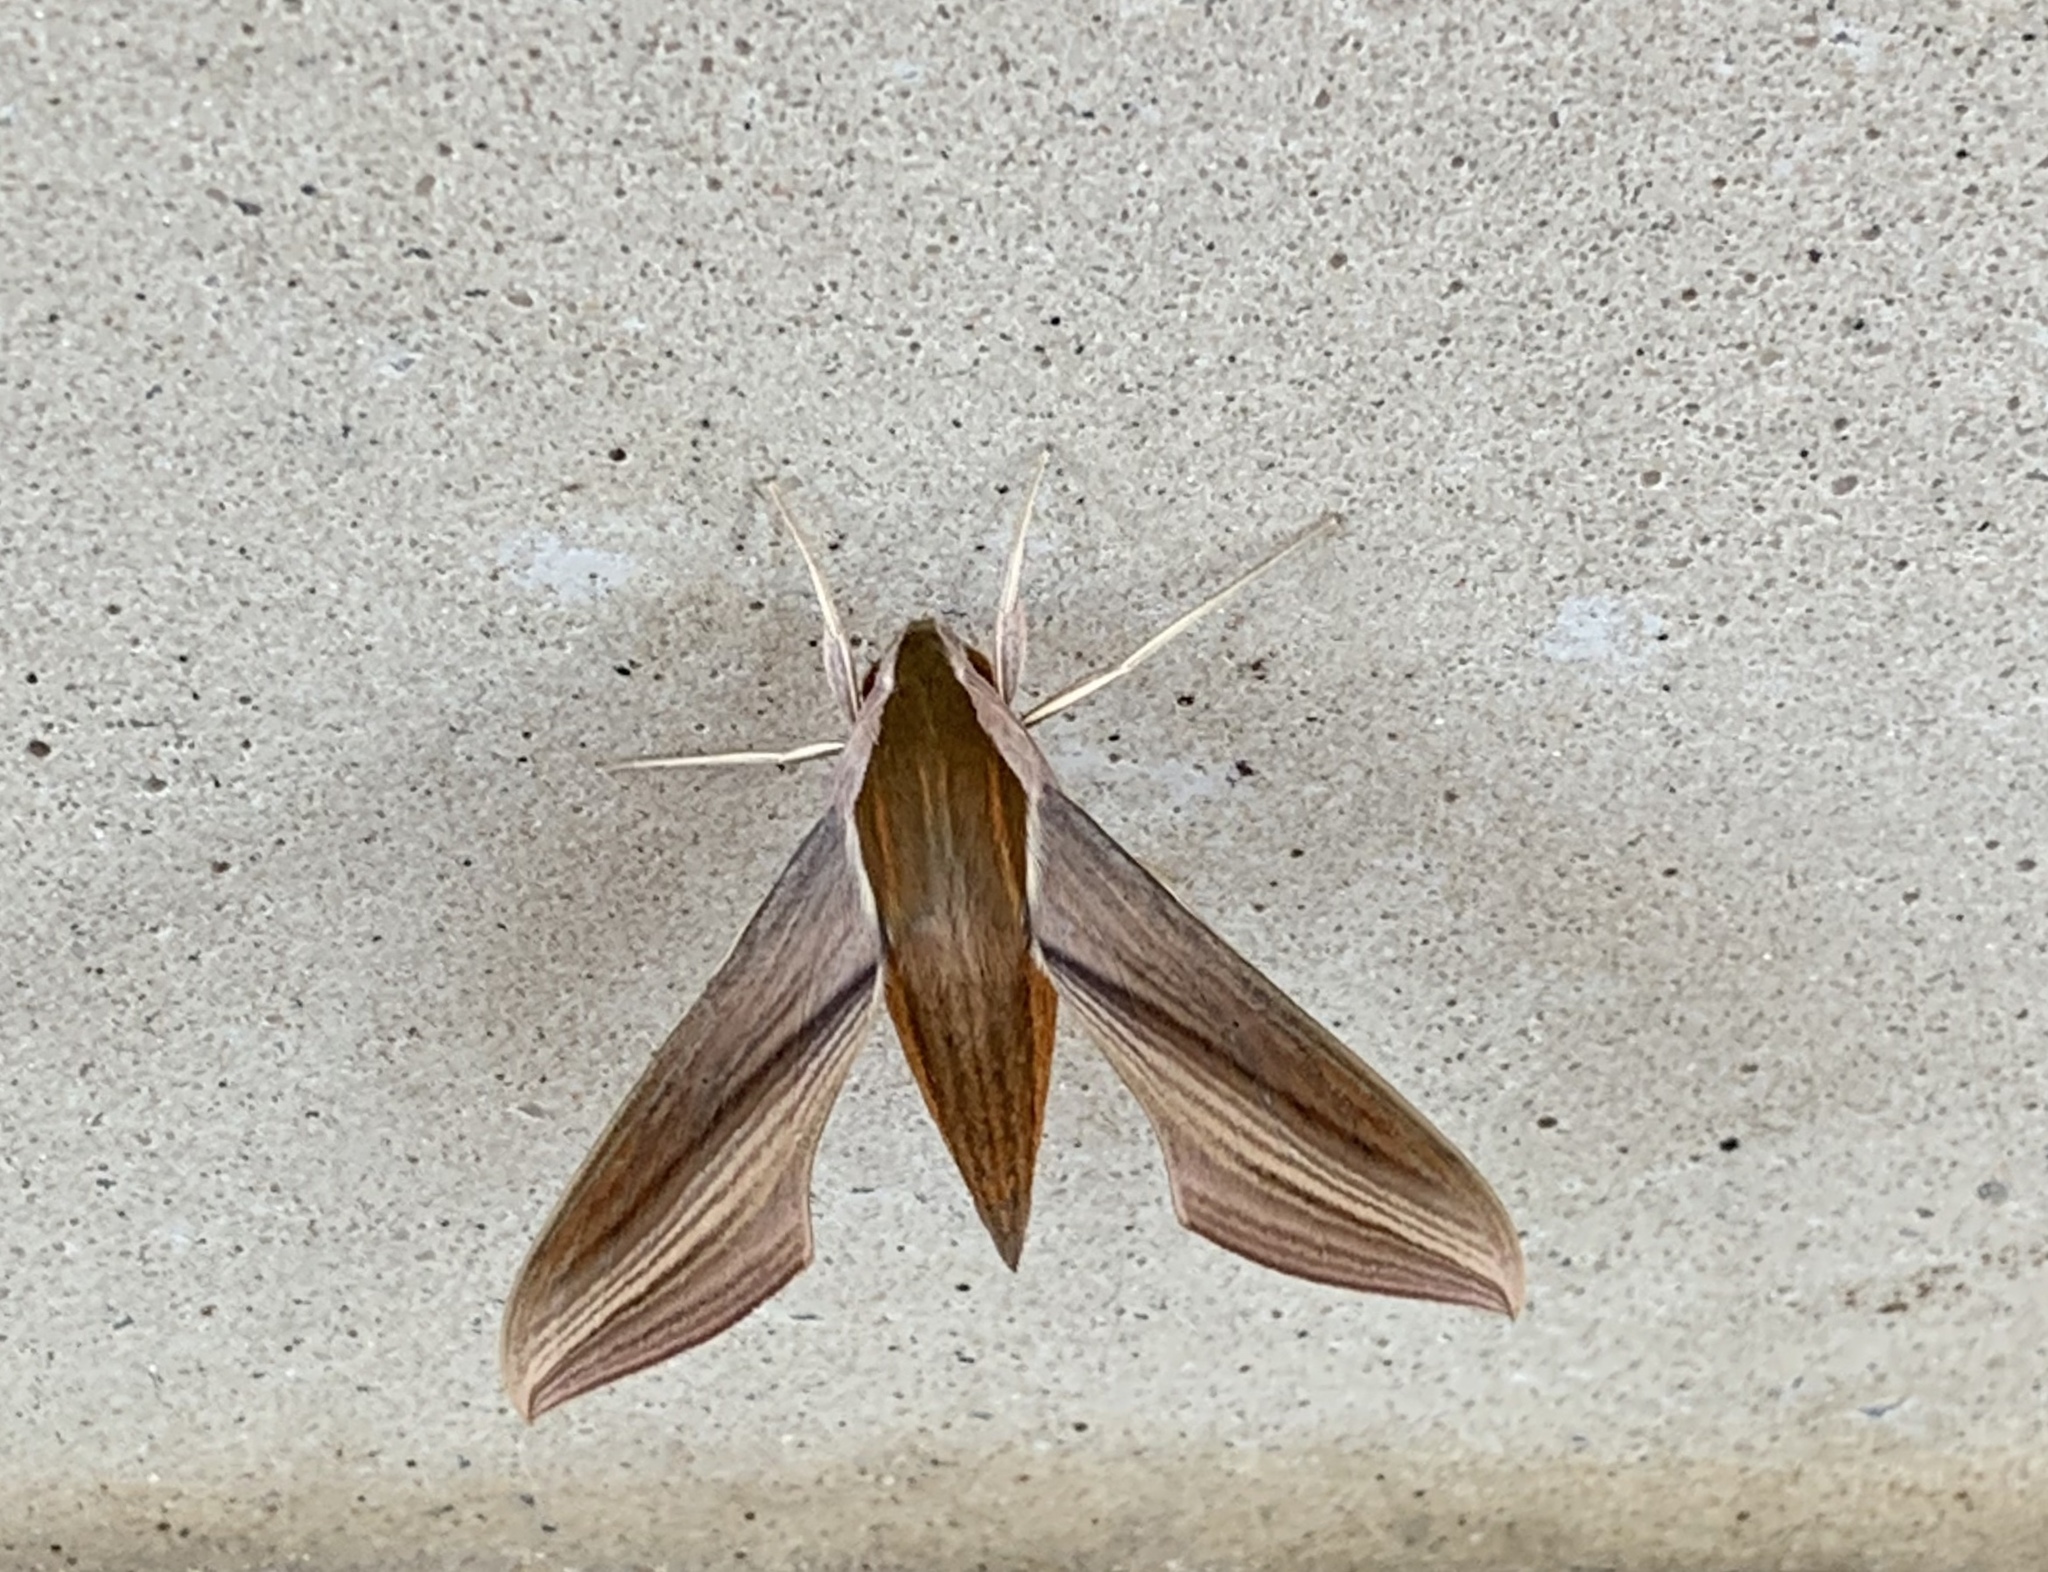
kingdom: Animalia
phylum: Arthropoda
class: Insecta
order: Lepidoptera
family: Sphingidae
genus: Xylophanes
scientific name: Xylophanes tersa
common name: Tersa sphinx
